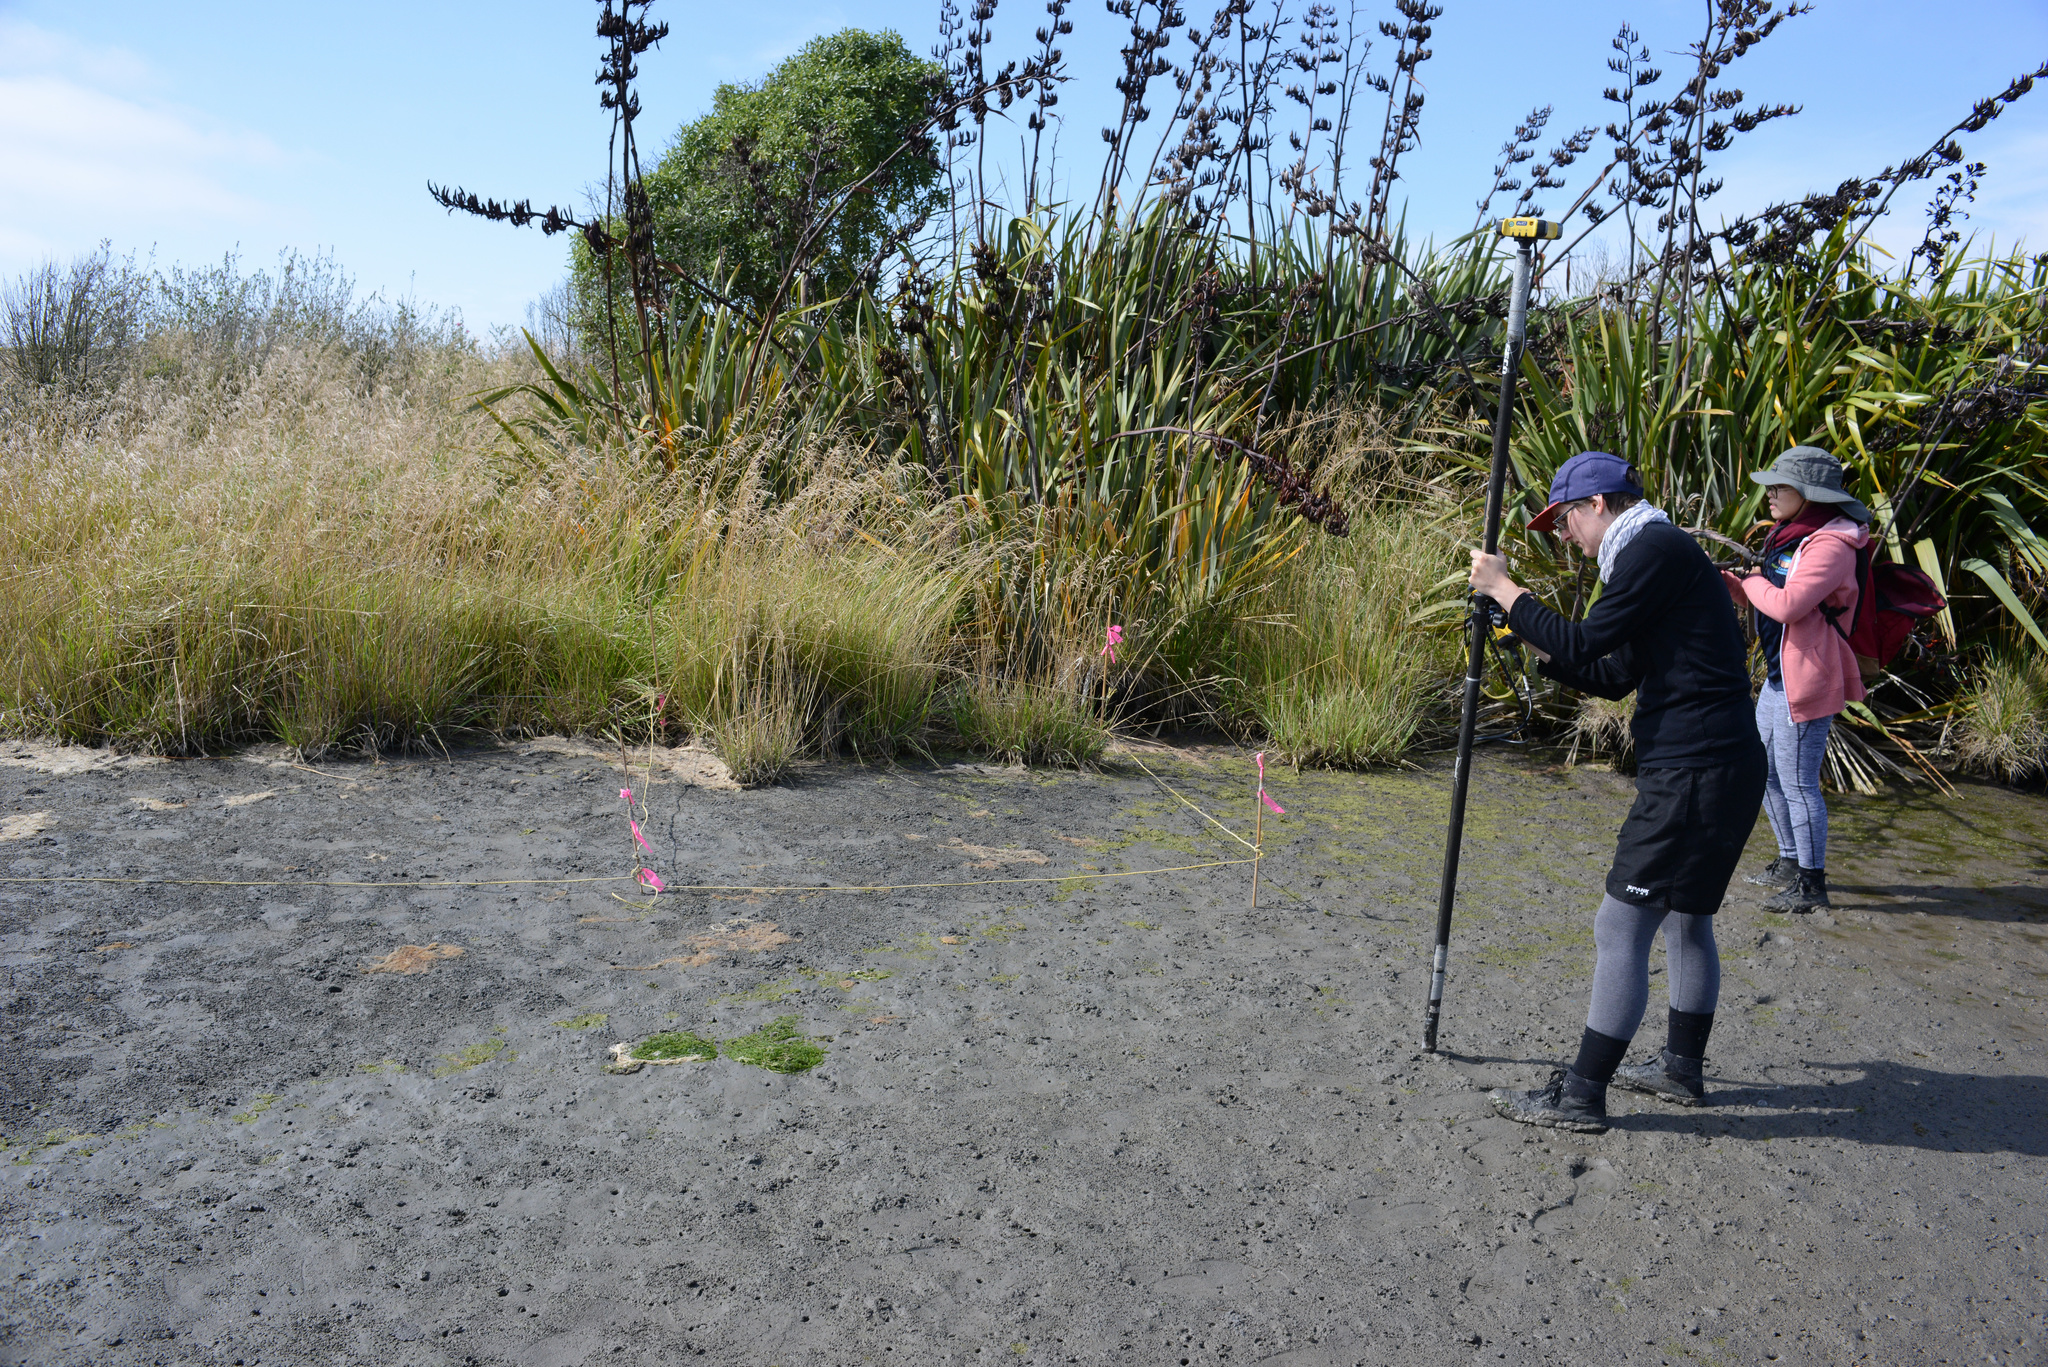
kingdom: Plantae
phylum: Tracheophyta
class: Liliopsida
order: Asparagales
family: Asphodelaceae
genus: Phormium
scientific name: Phormium tenax
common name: New zealand flax
